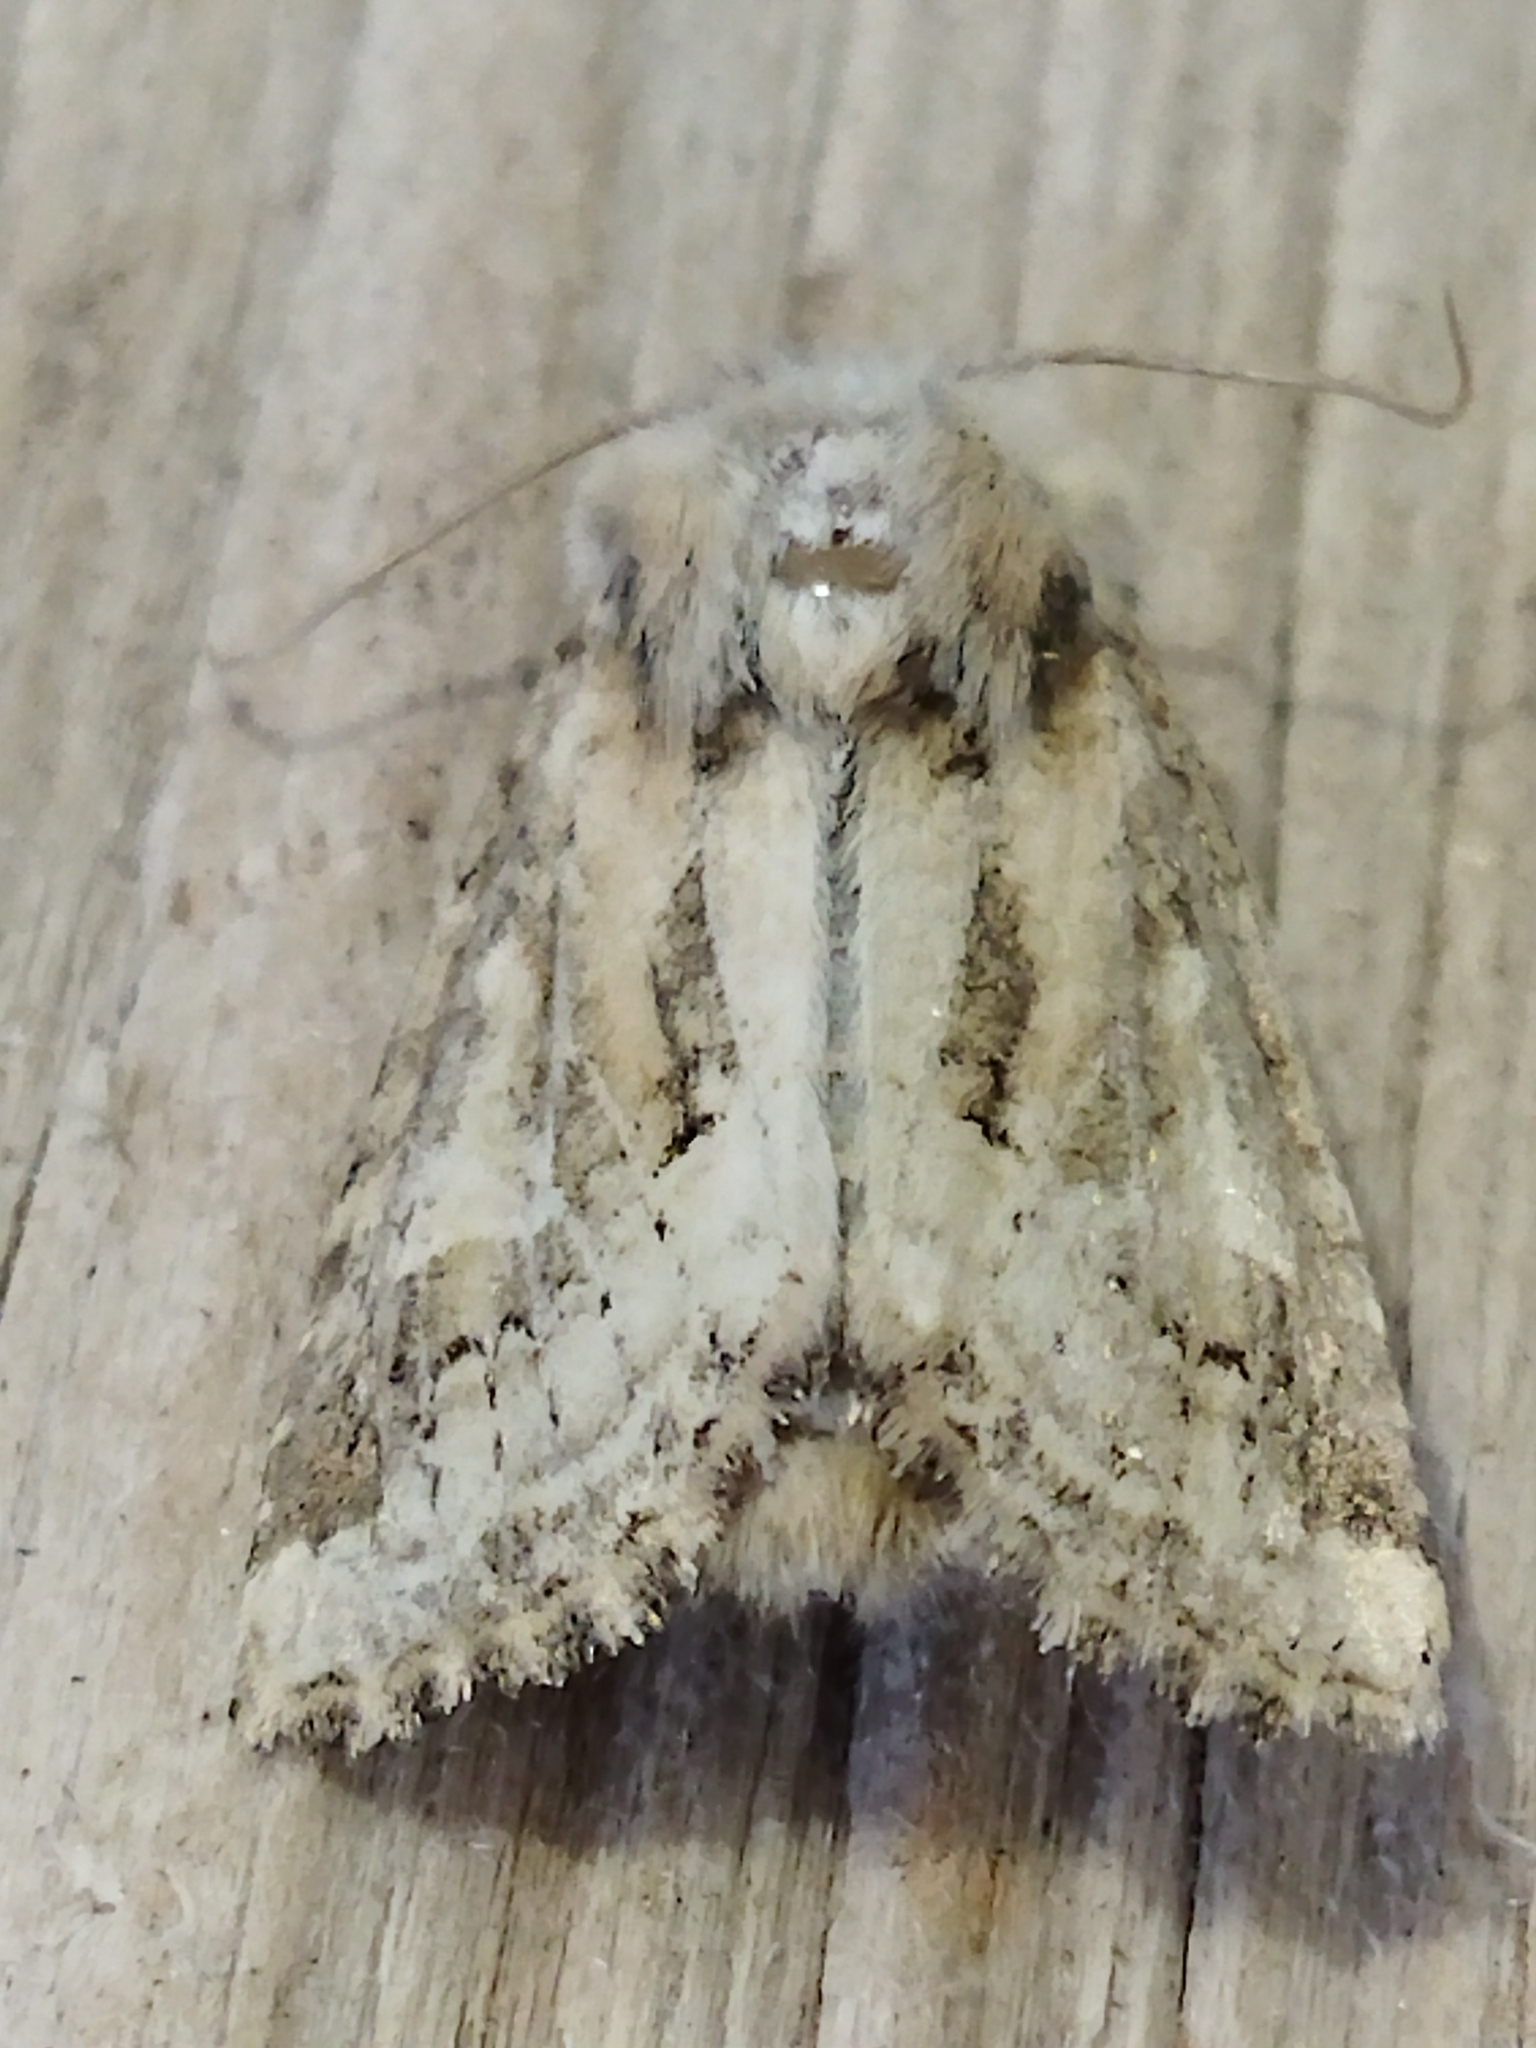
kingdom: Animalia
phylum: Arthropoda
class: Insecta
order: Lepidoptera
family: Noctuidae
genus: Luperina
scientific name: Luperina dumerilii
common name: Dumeril's rustic
